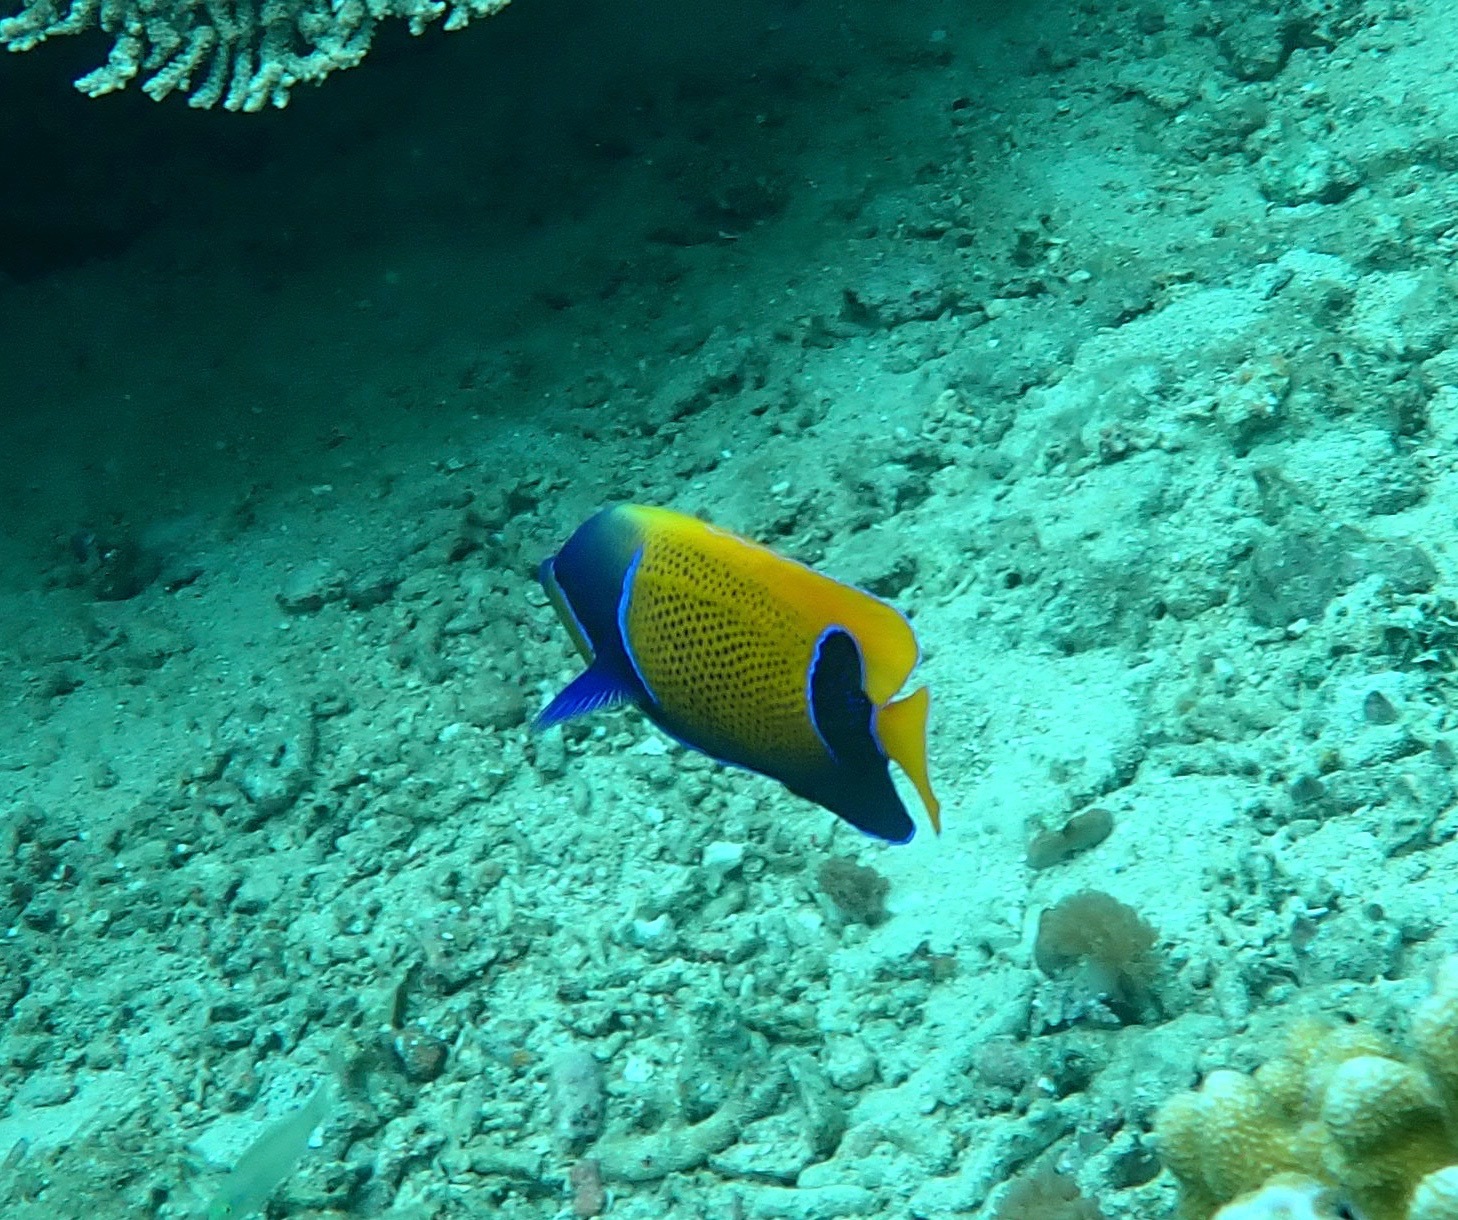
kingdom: Animalia
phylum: Chordata
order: Perciformes
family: Pomacanthidae
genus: Pomacanthus
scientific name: Pomacanthus navarchus
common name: Blue-girdled angelfish
